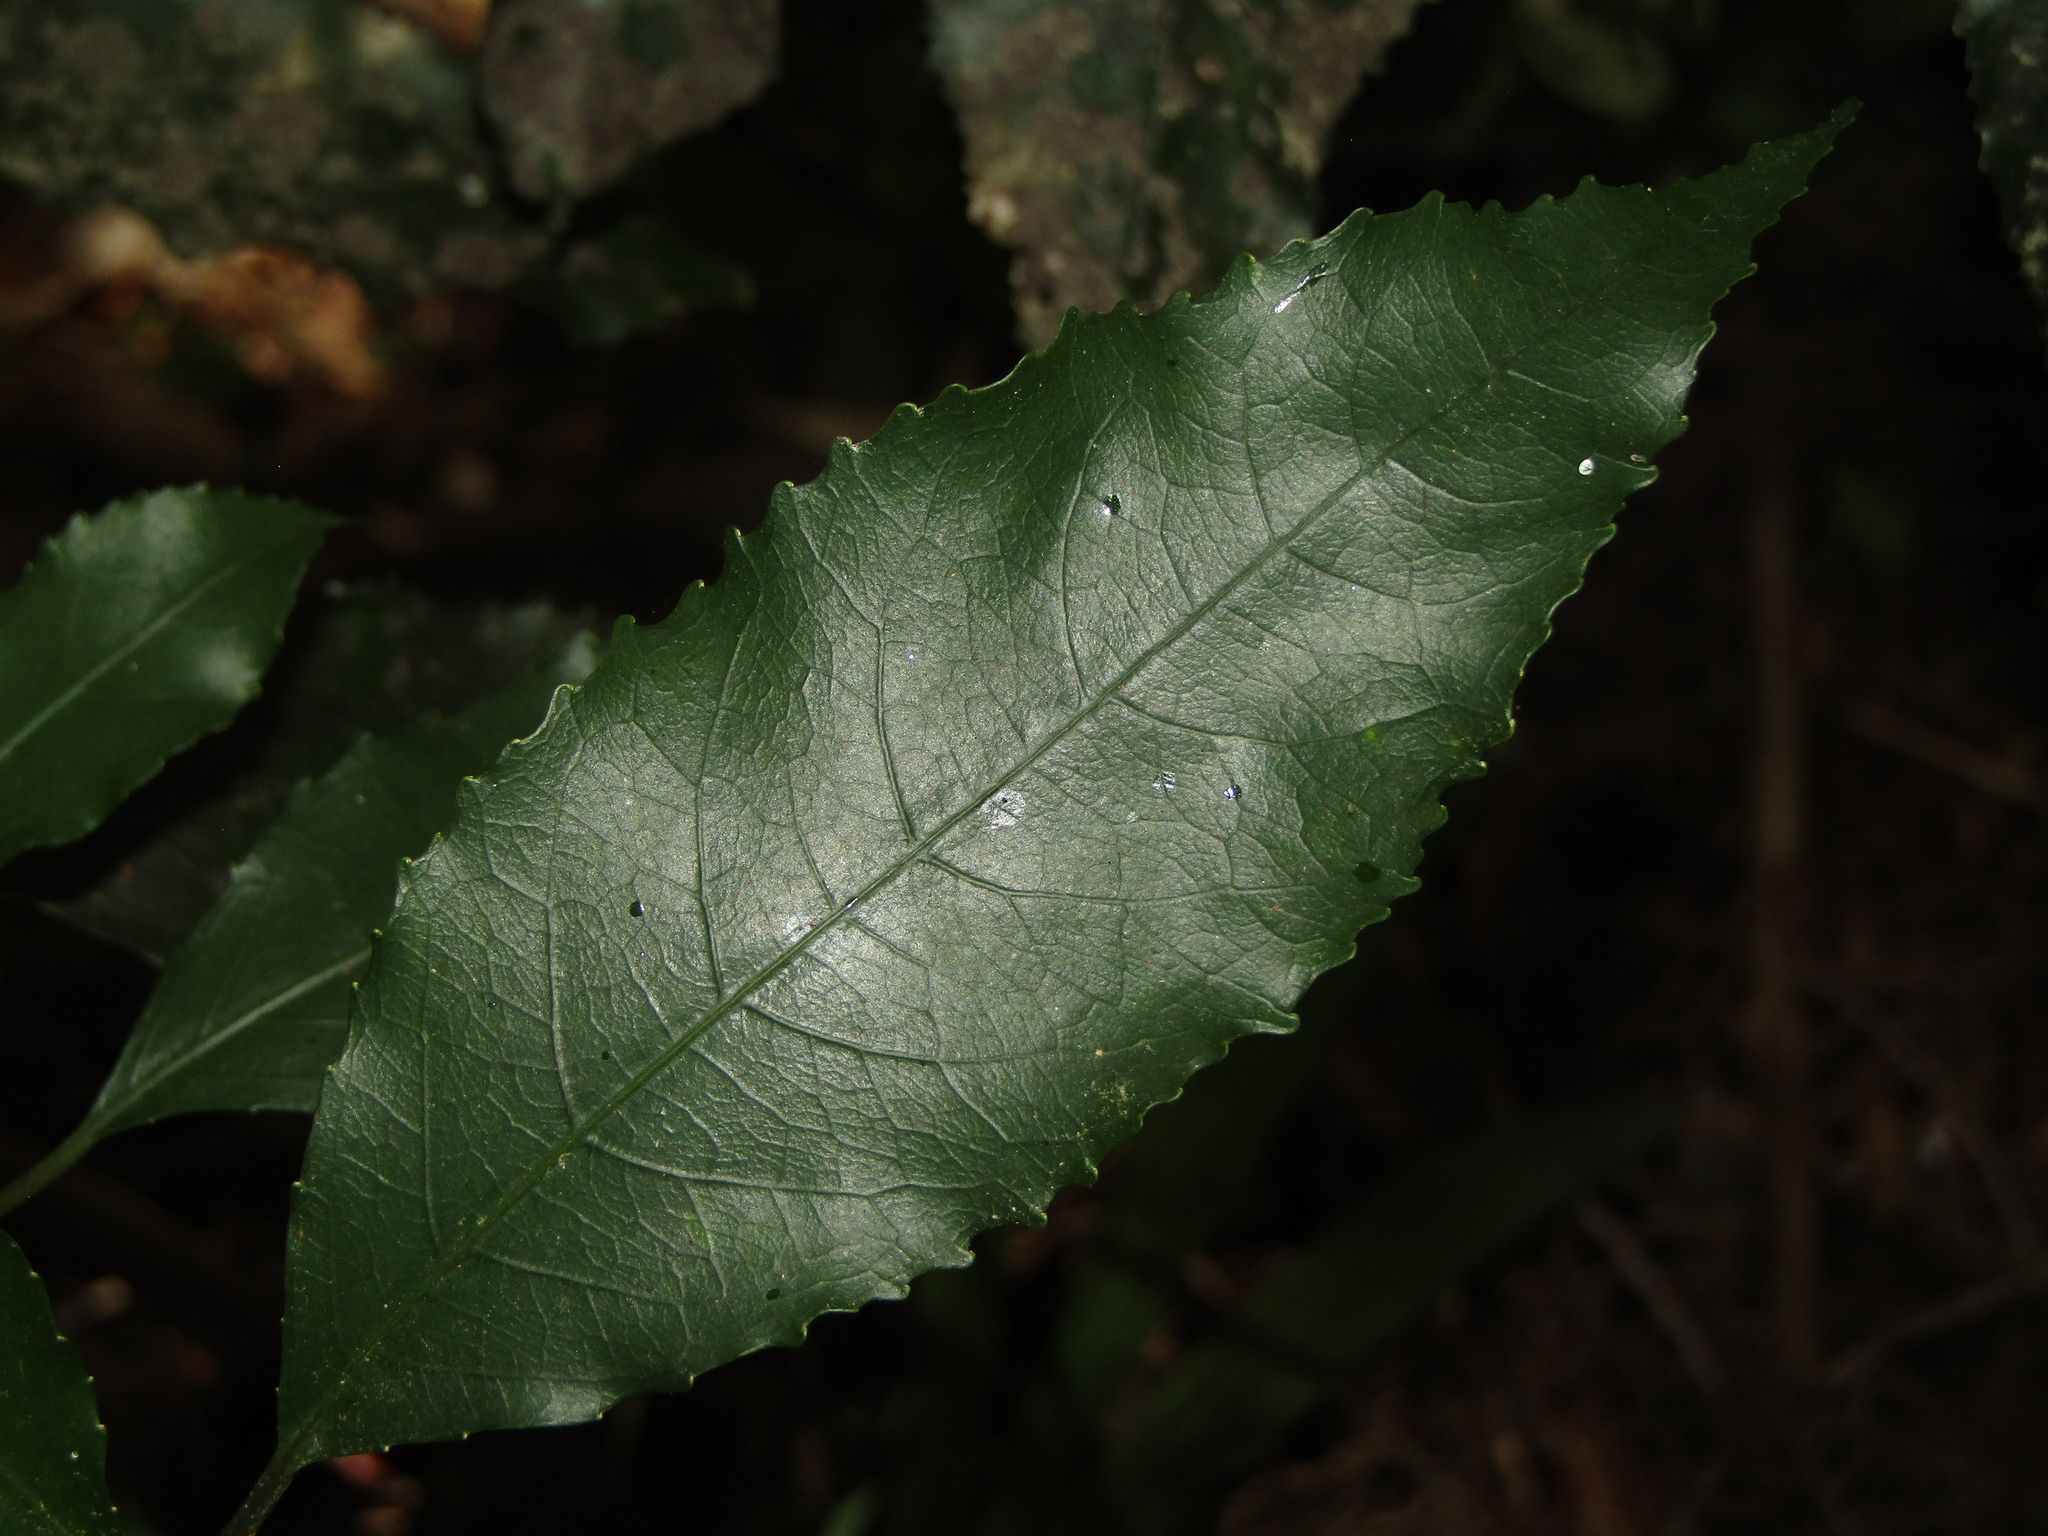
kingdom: Plantae
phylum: Tracheophyta
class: Magnoliopsida
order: Malpighiales
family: Violaceae
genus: Melicytus
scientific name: Melicytus ramiflorus
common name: Mahoe
